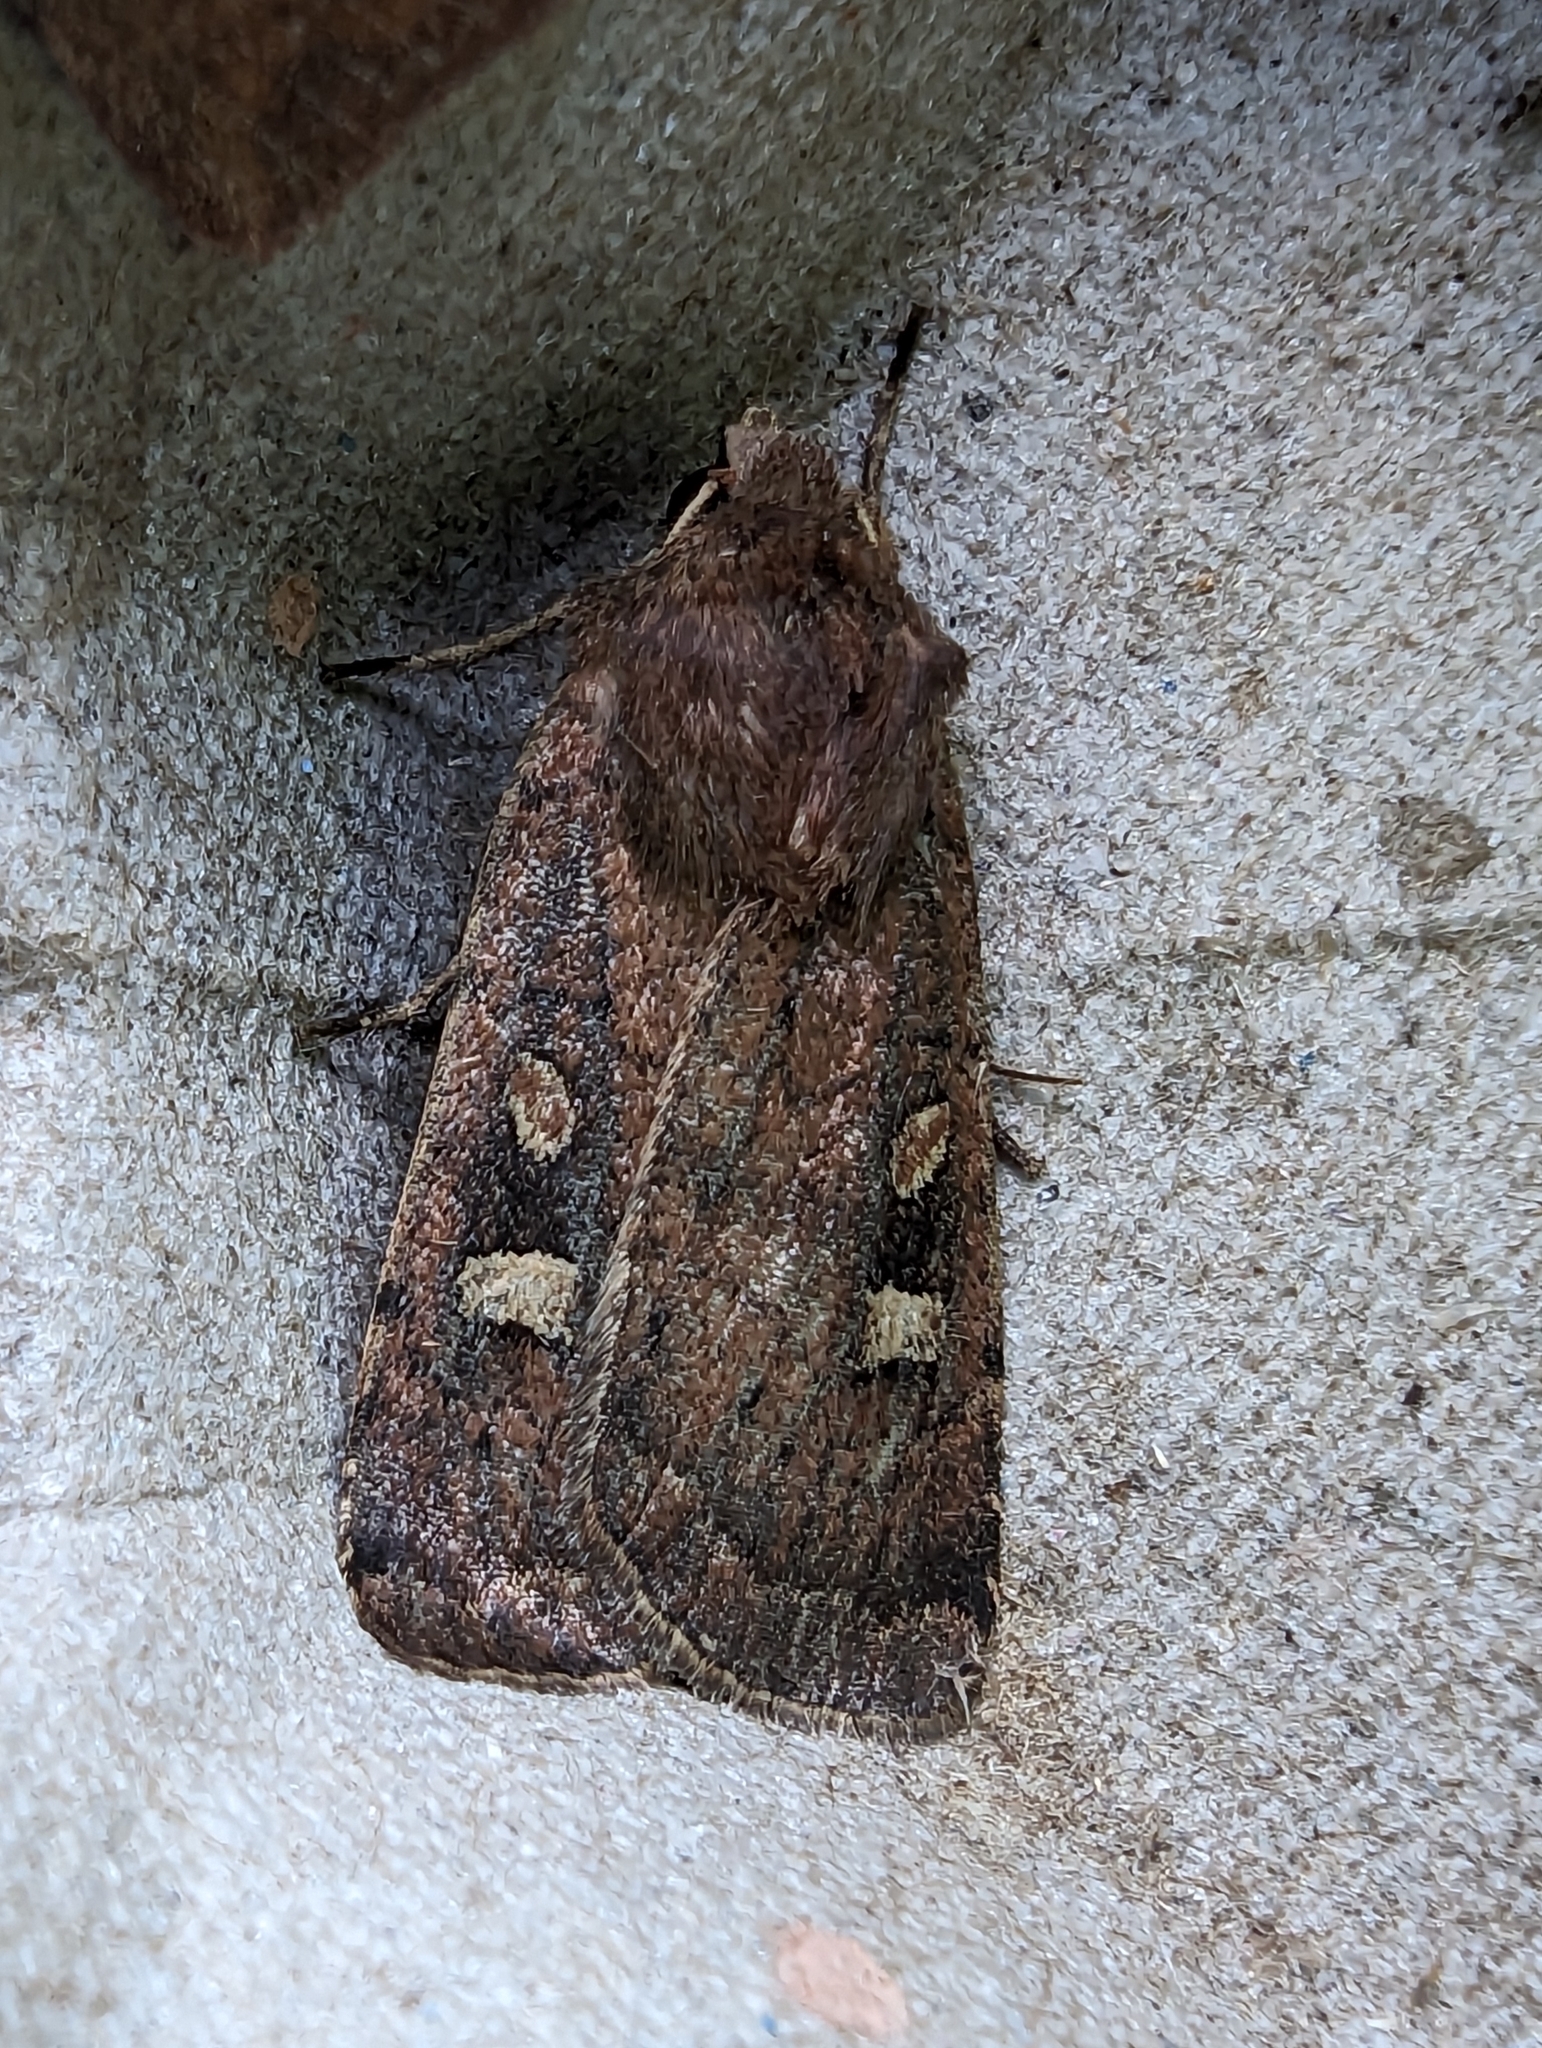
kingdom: Animalia
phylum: Arthropoda
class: Insecta
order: Lepidoptera
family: Noctuidae
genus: Xestia
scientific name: Xestia xanthographa
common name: Square-spot rustic
